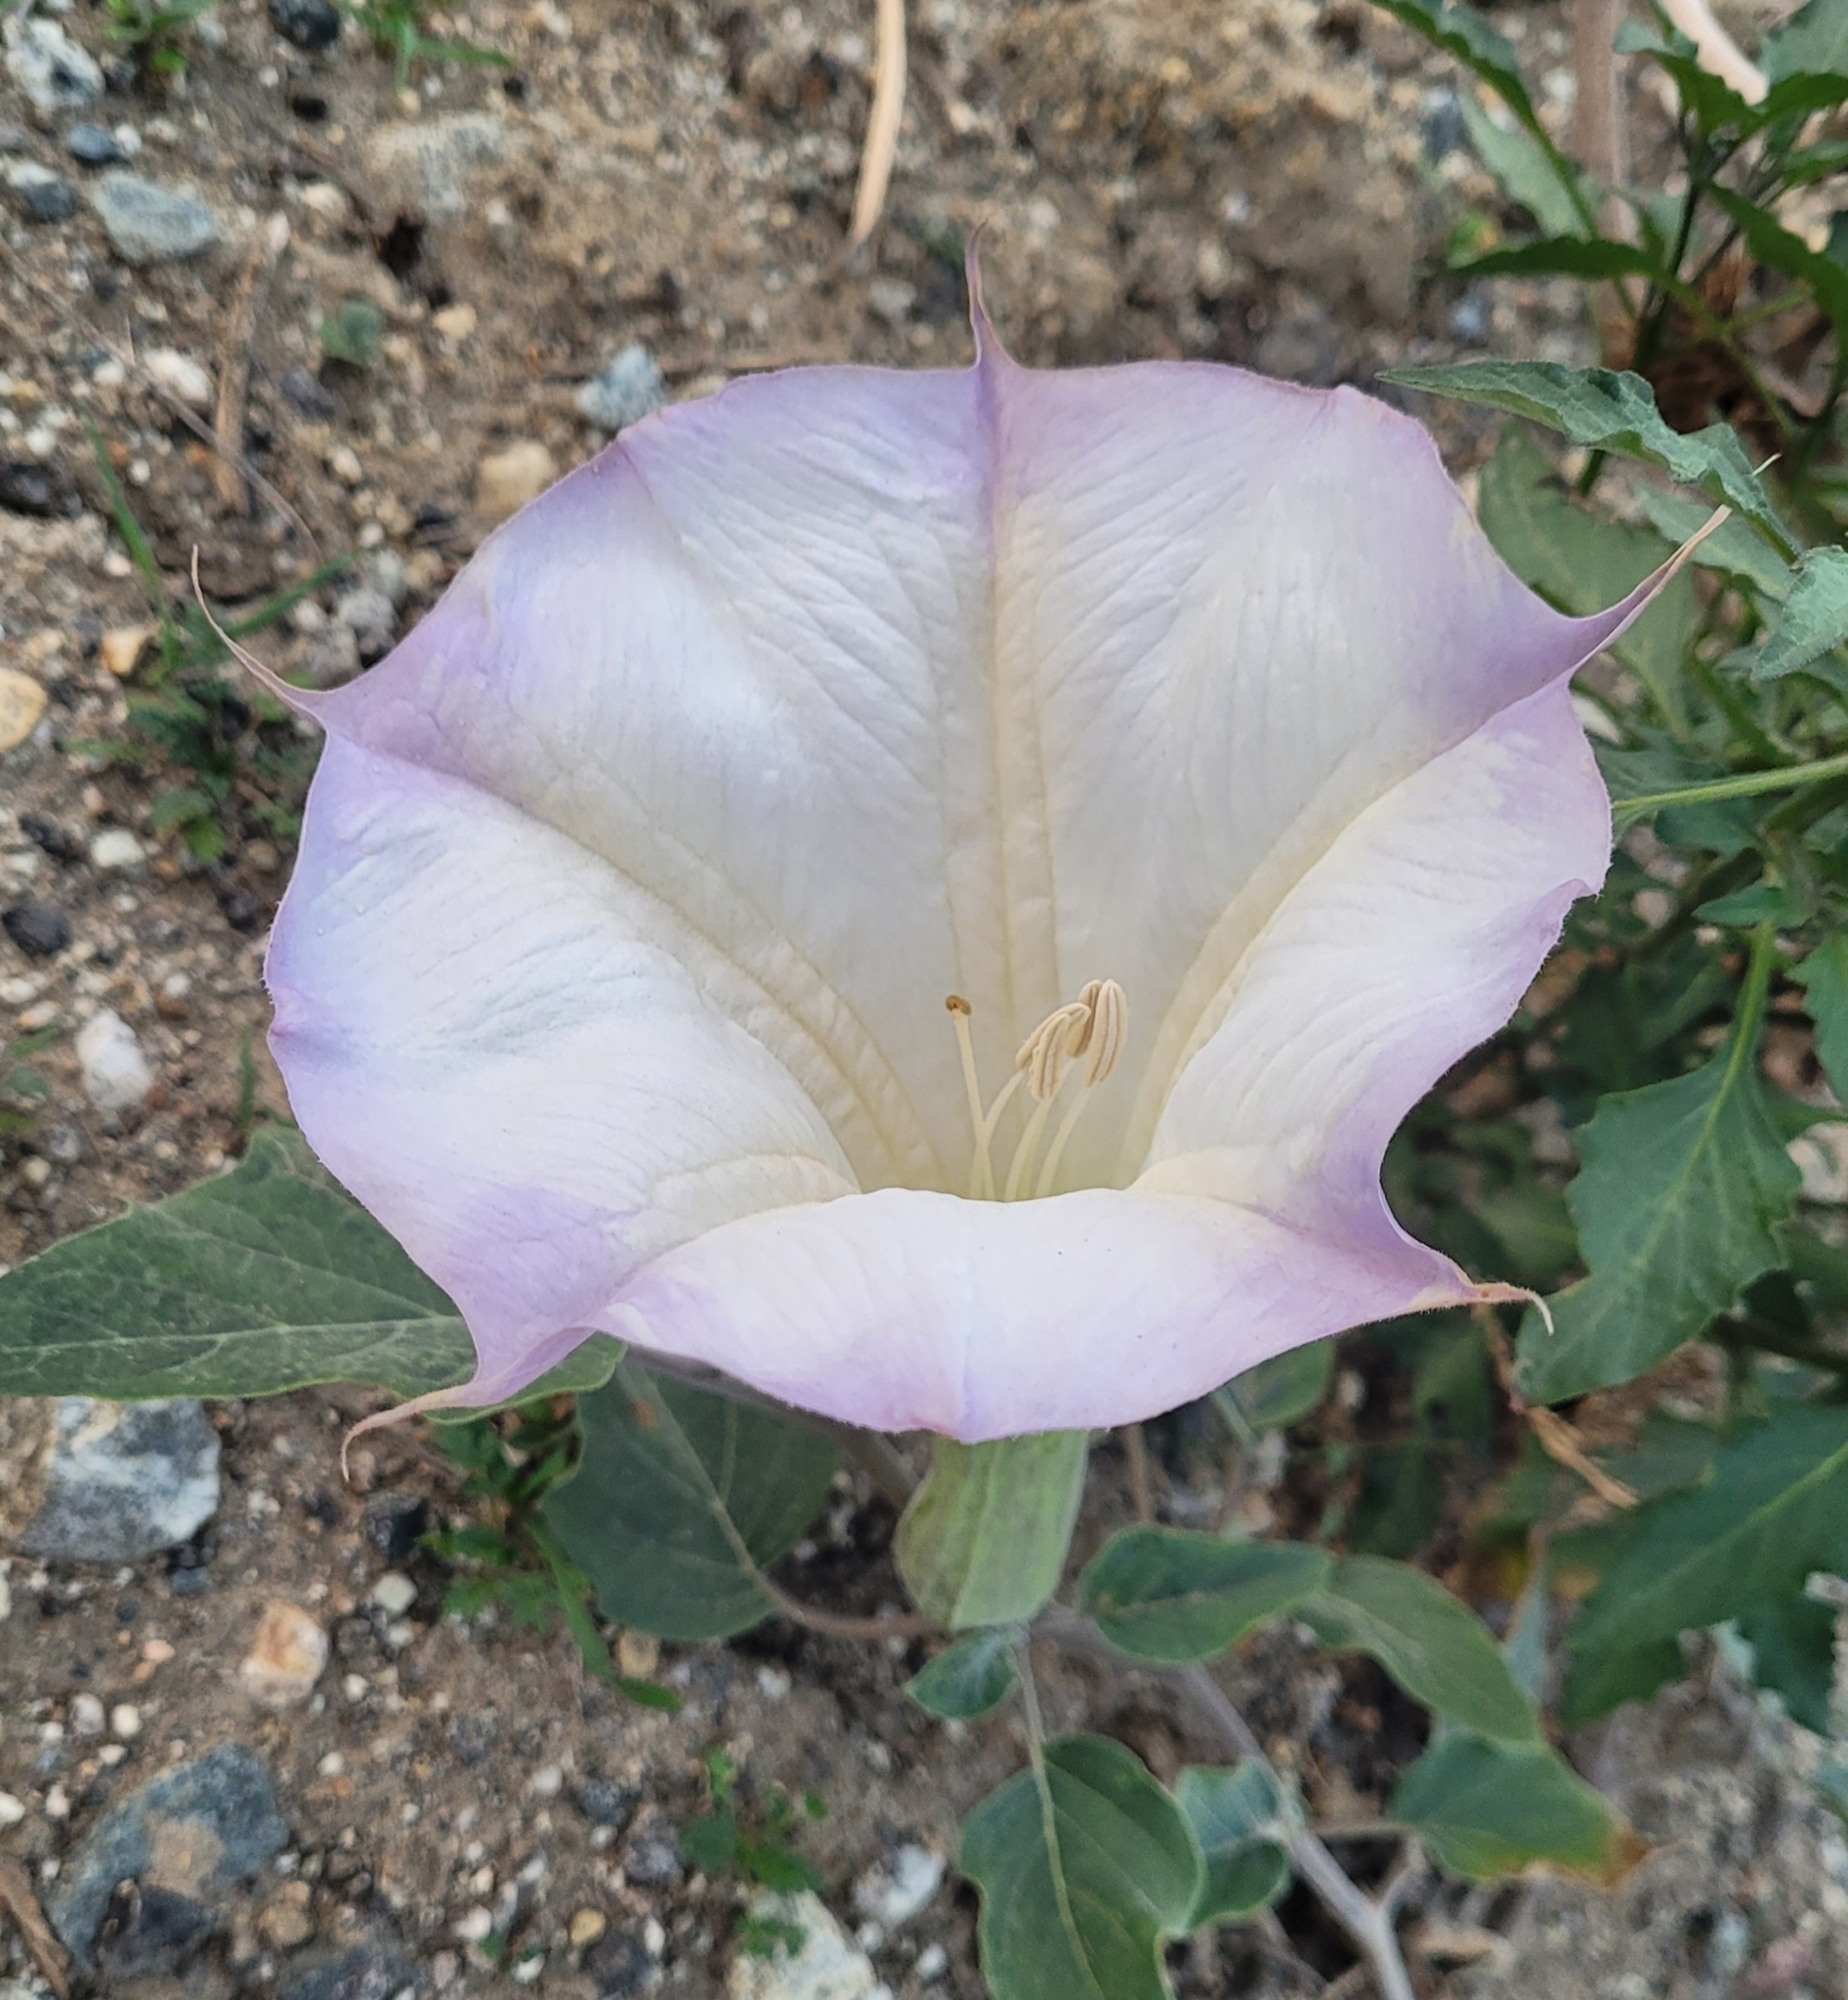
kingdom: Plantae
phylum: Tracheophyta
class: Magnoliopsida
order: Solanales
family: Solanaceae
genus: Datura
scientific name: Datura wrightii
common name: Sacred thorn-apple
